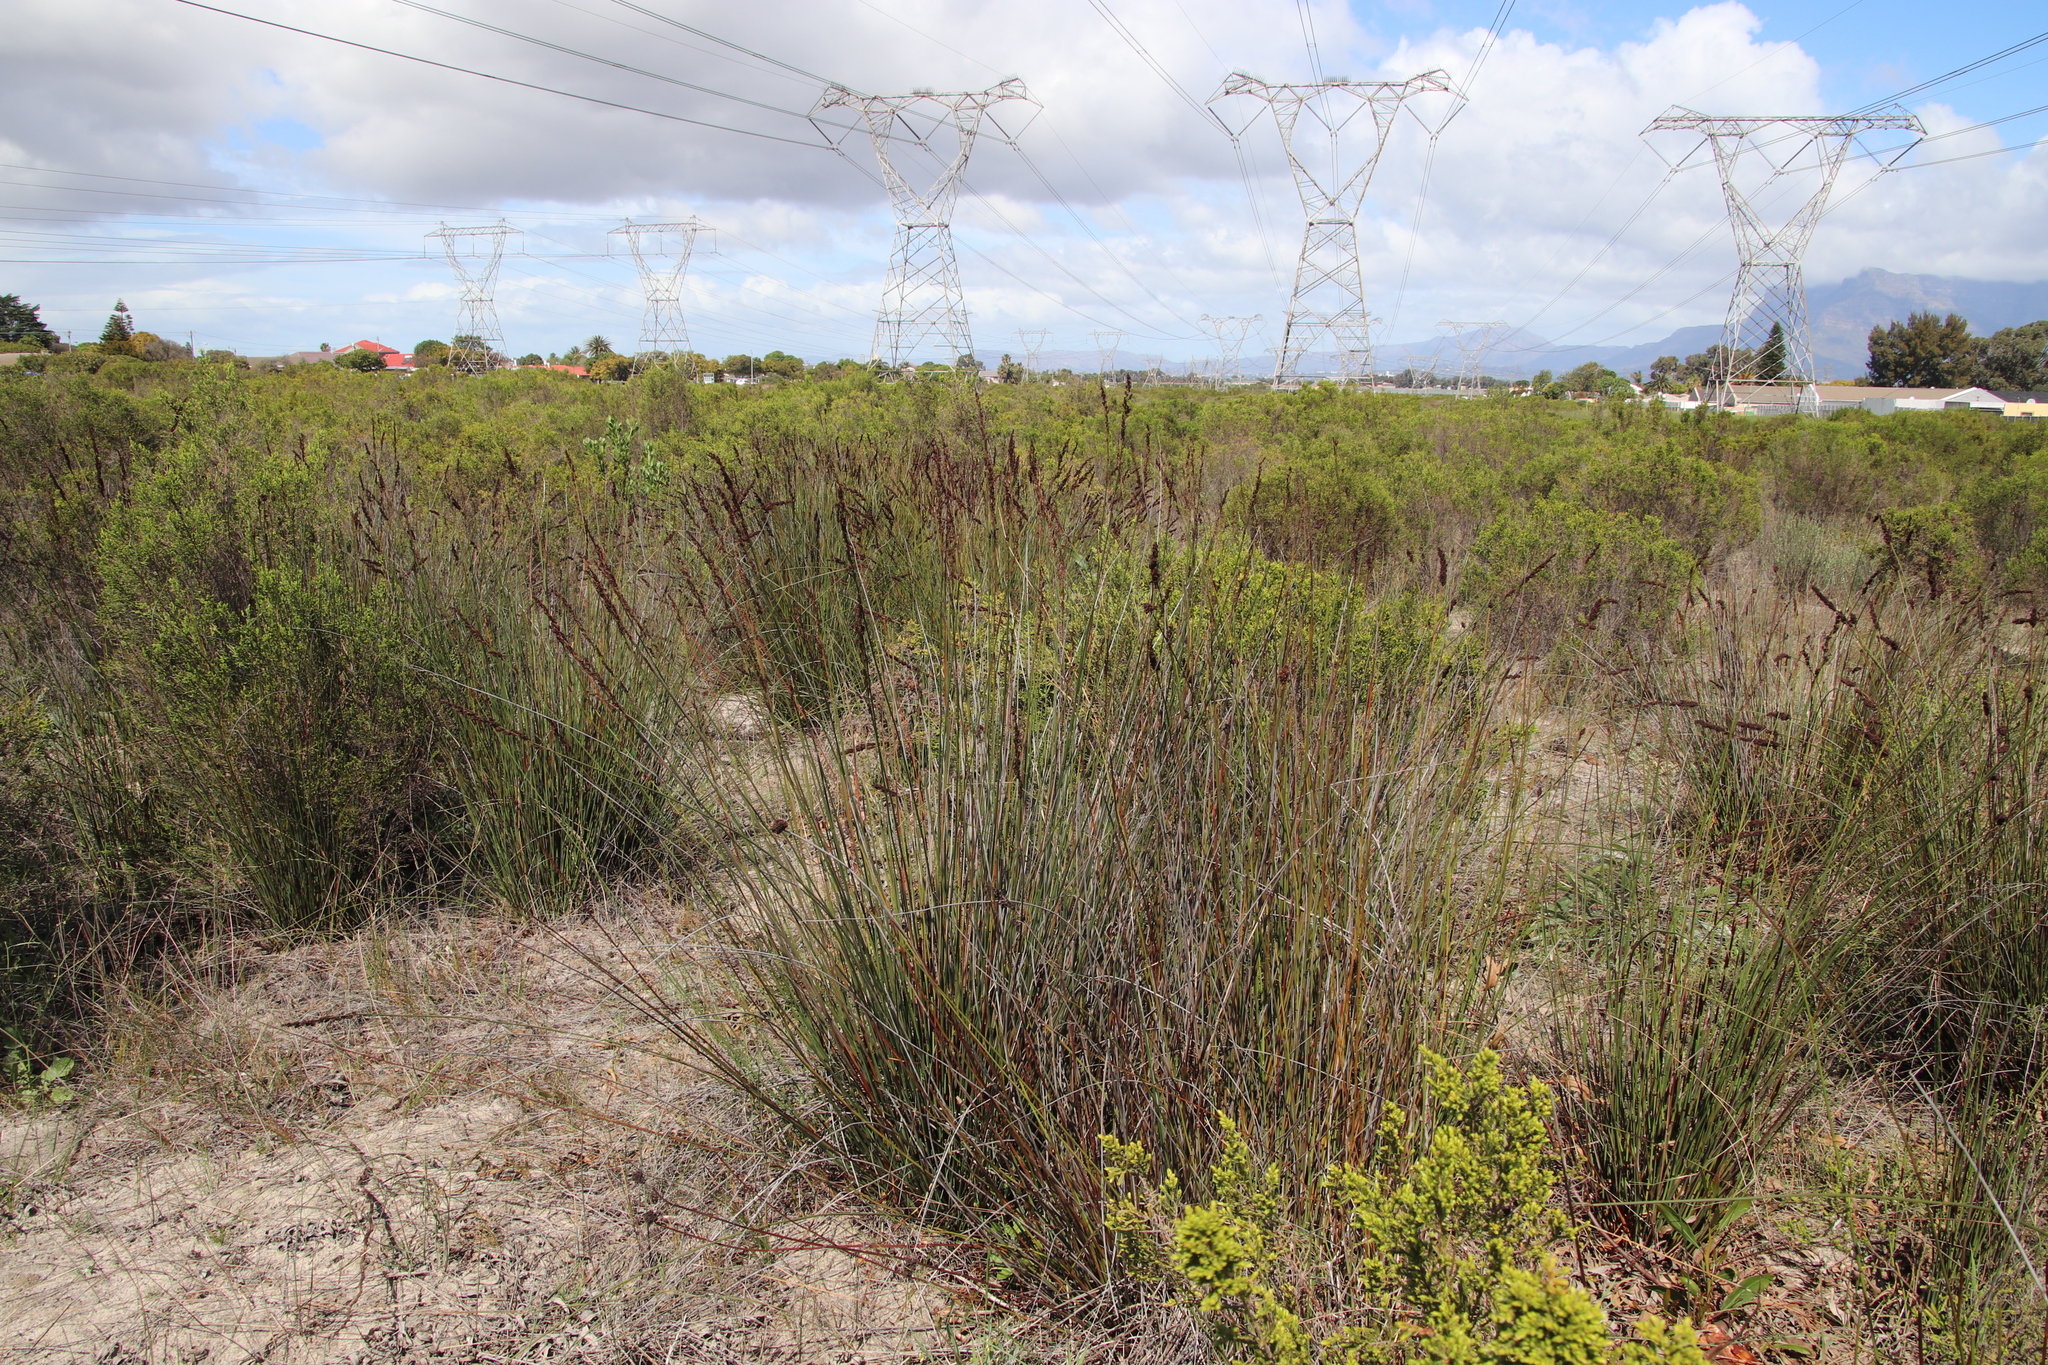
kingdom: Plantae
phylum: Tracheophyta
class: Liliopsida
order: Poales
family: Restionaceae
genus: Elegia
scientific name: Elegia tectorum
